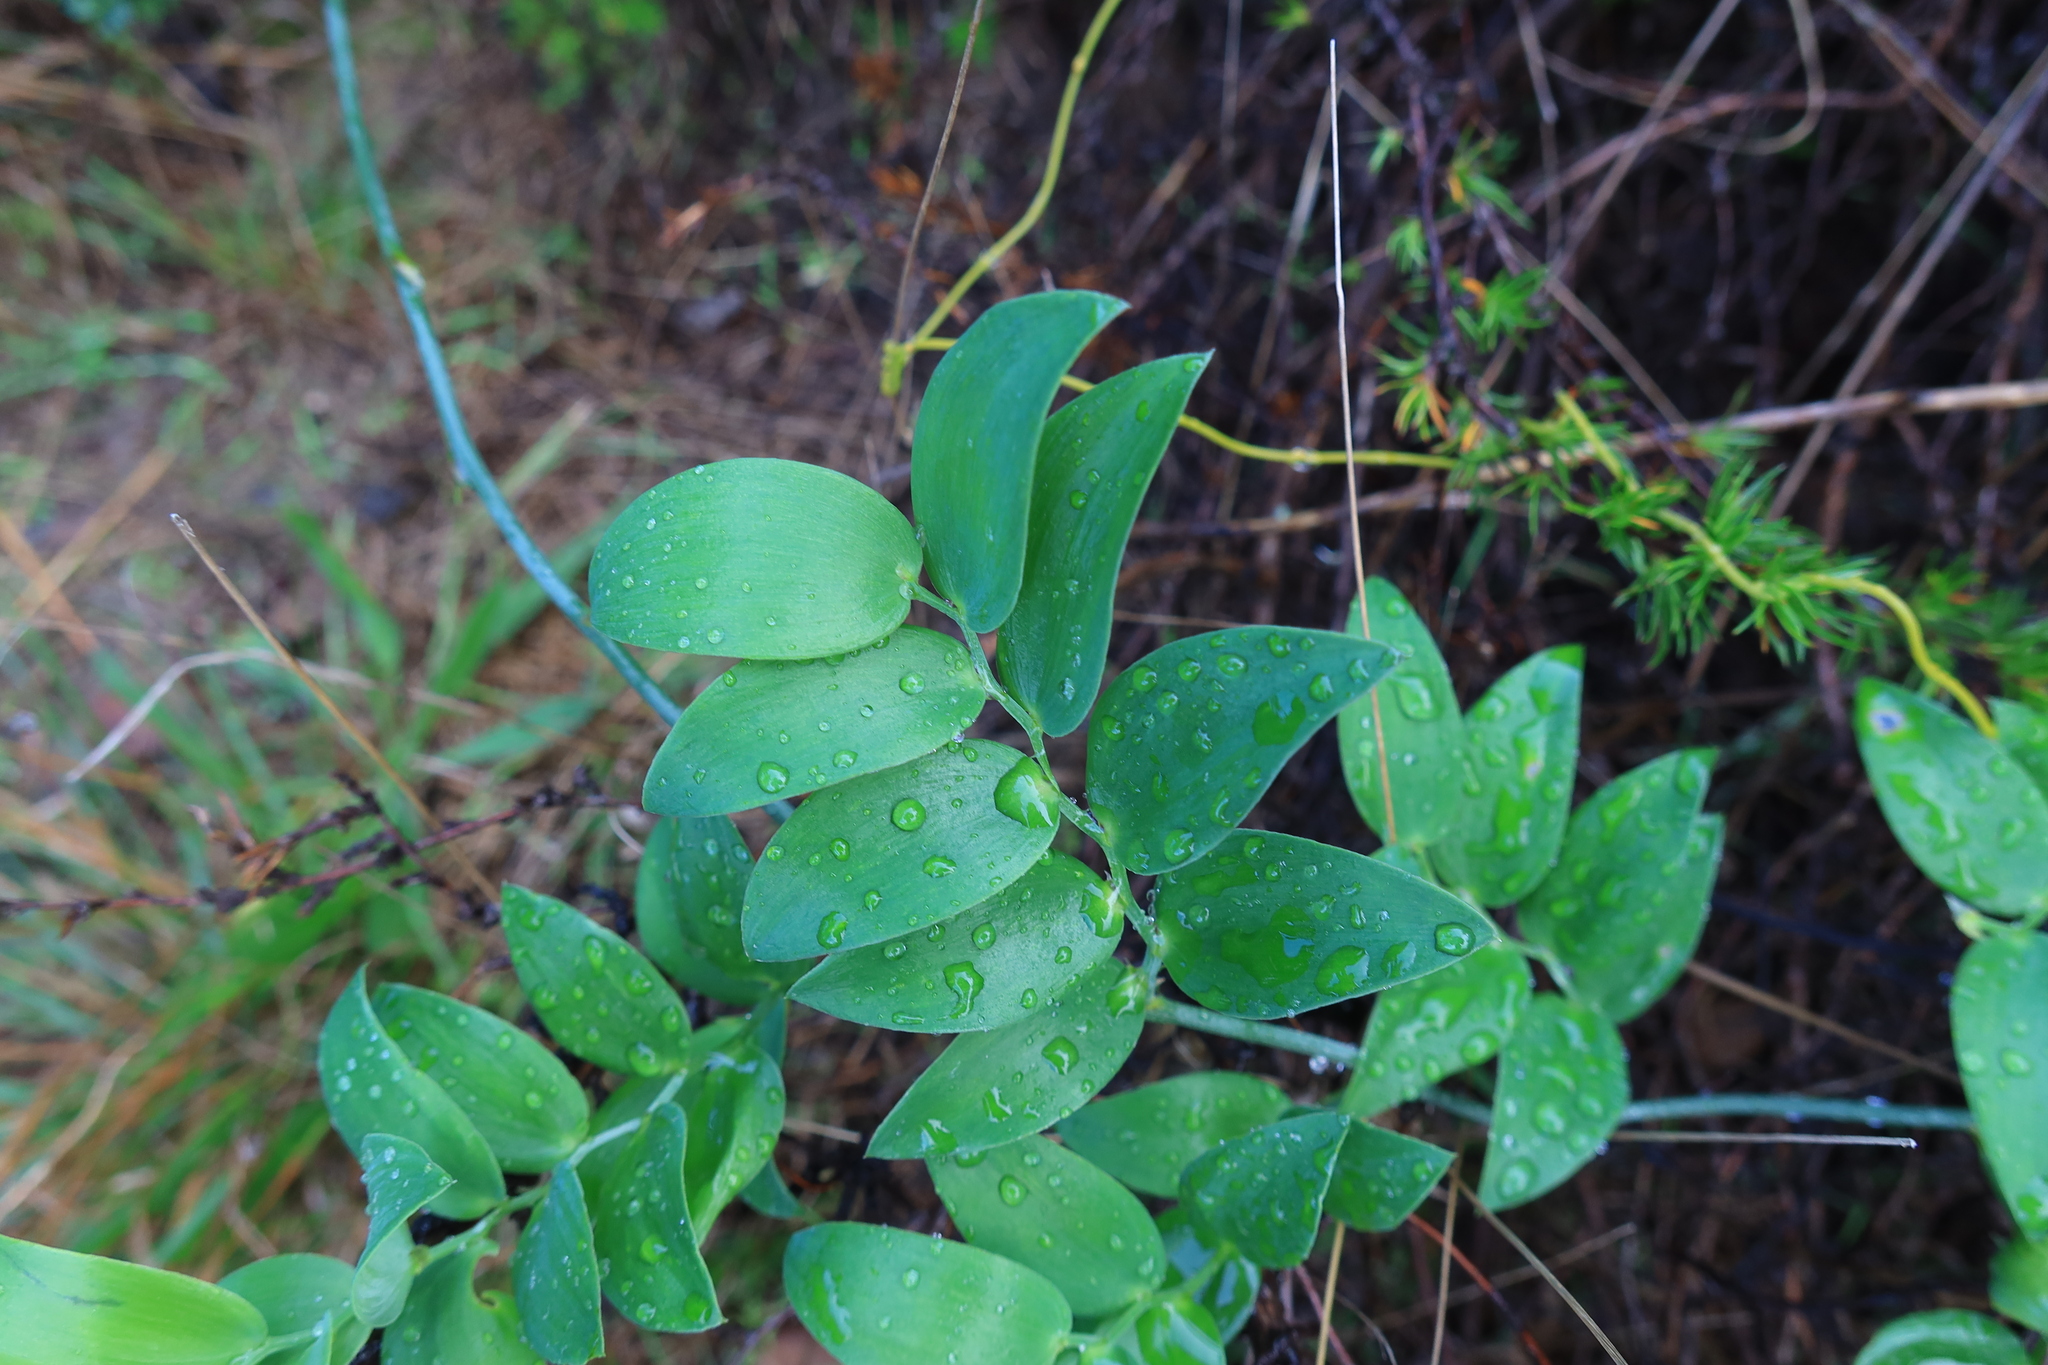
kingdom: Plantae
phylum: Tracheophyta
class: Liliopsida
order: Asparagales
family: Asparagaceae
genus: Asparagus
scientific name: Asparagus ovatus
